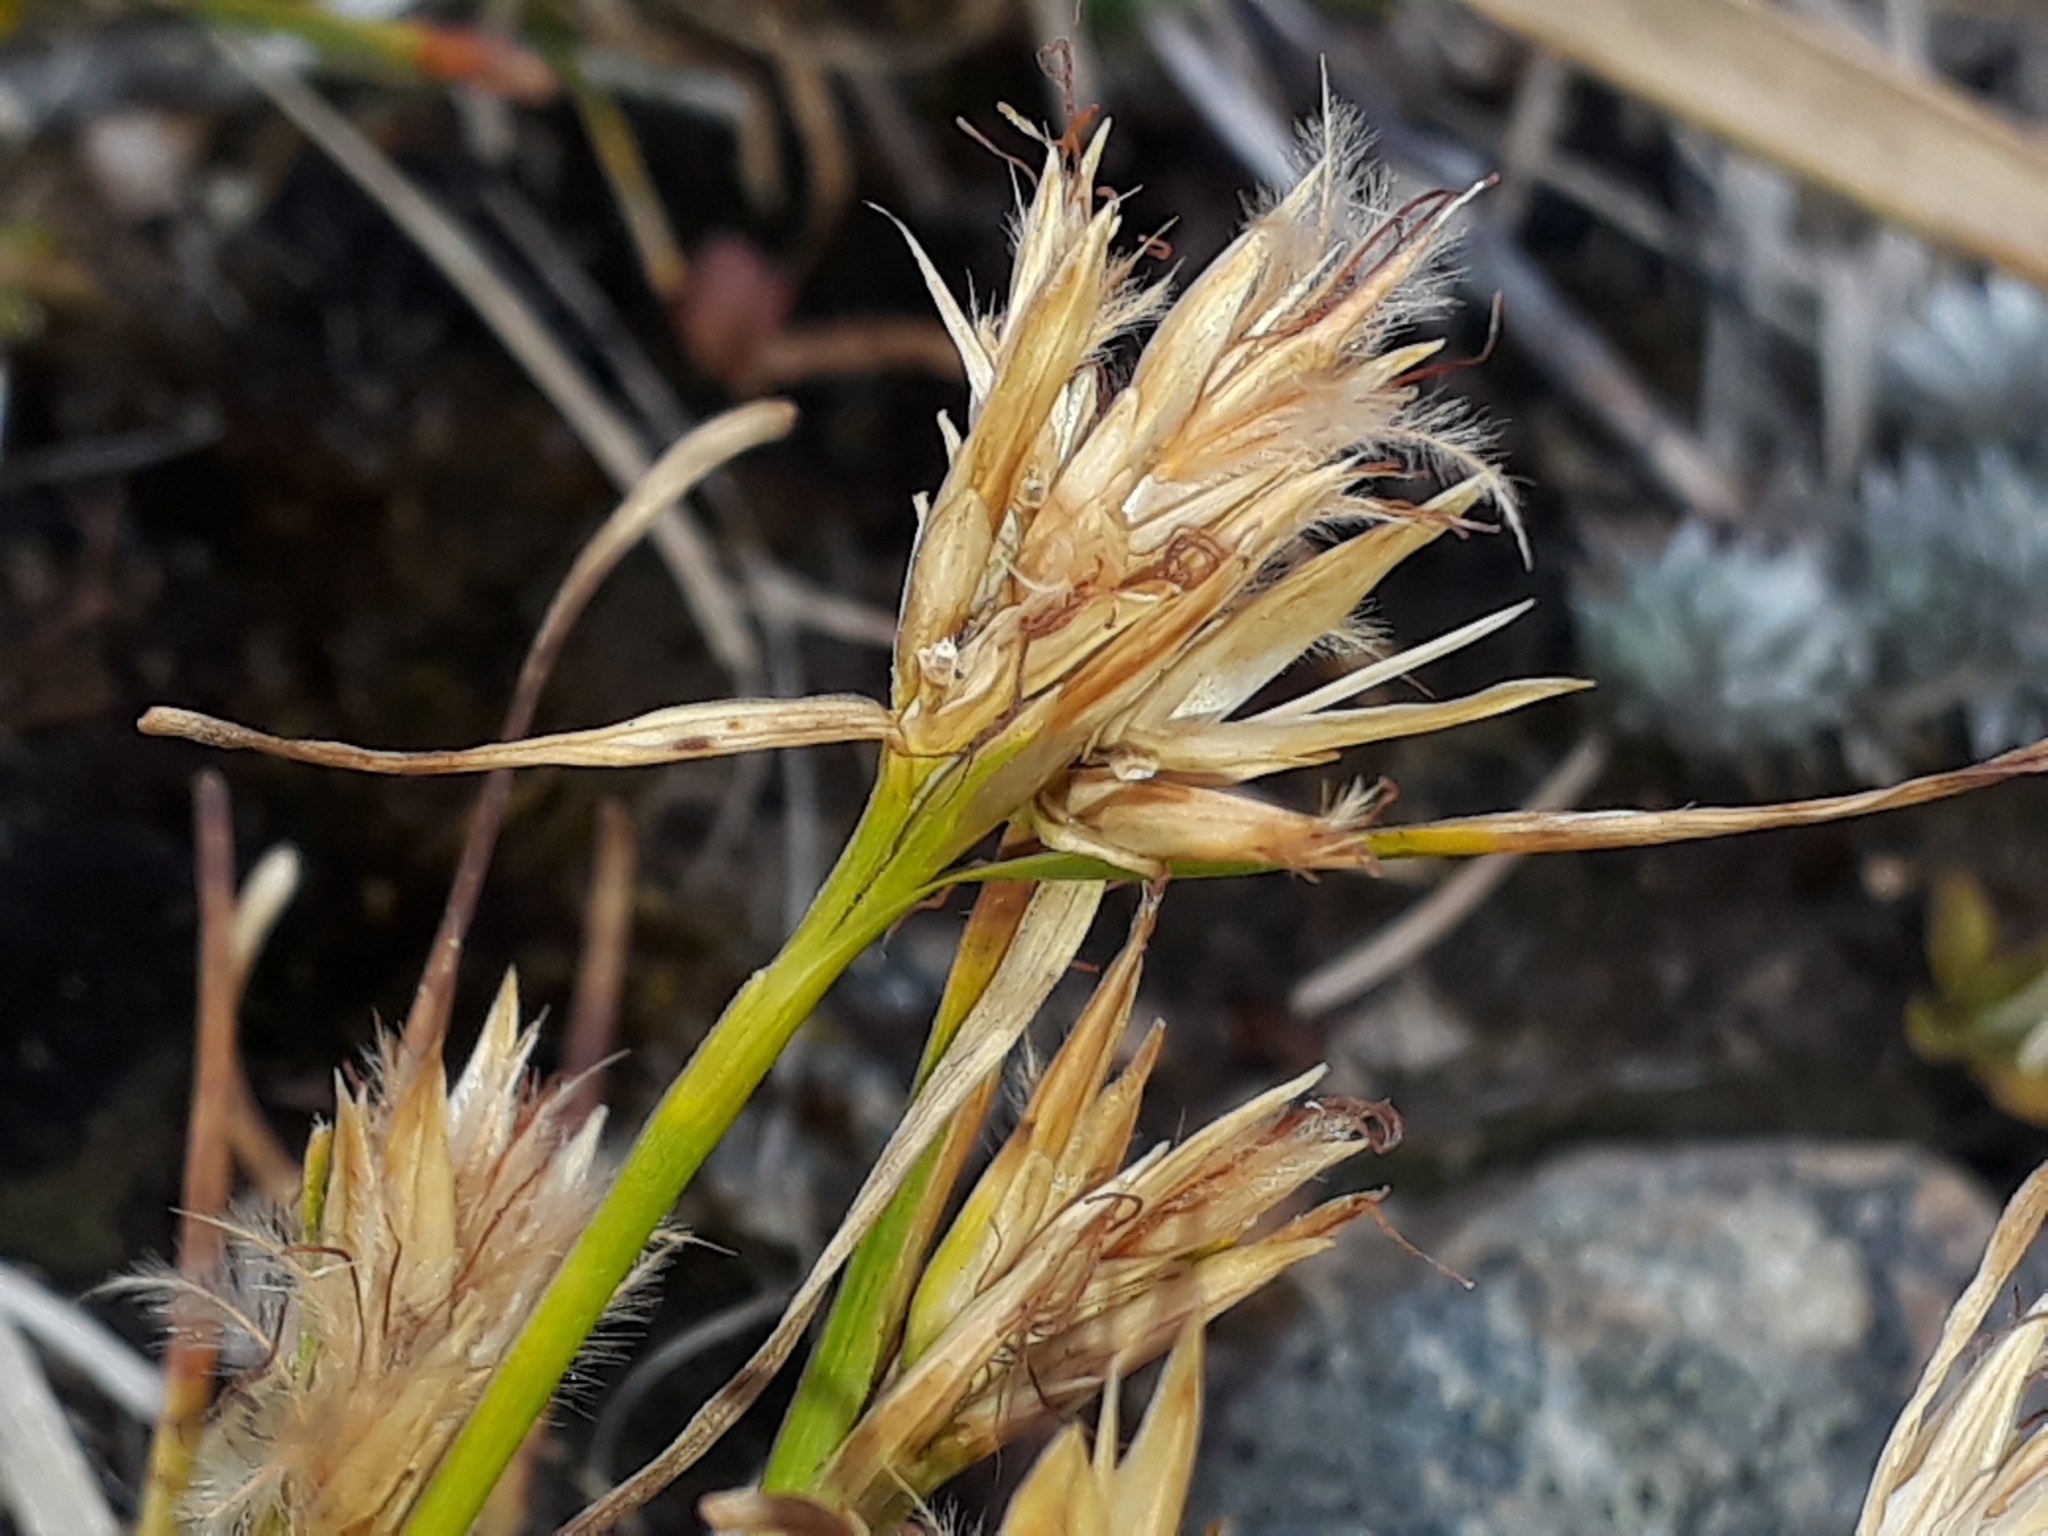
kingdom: Plantae
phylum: Tracheophyta
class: Liliopsida
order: Poales
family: Cyperaceae
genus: Carpha
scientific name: Carpha alpina
